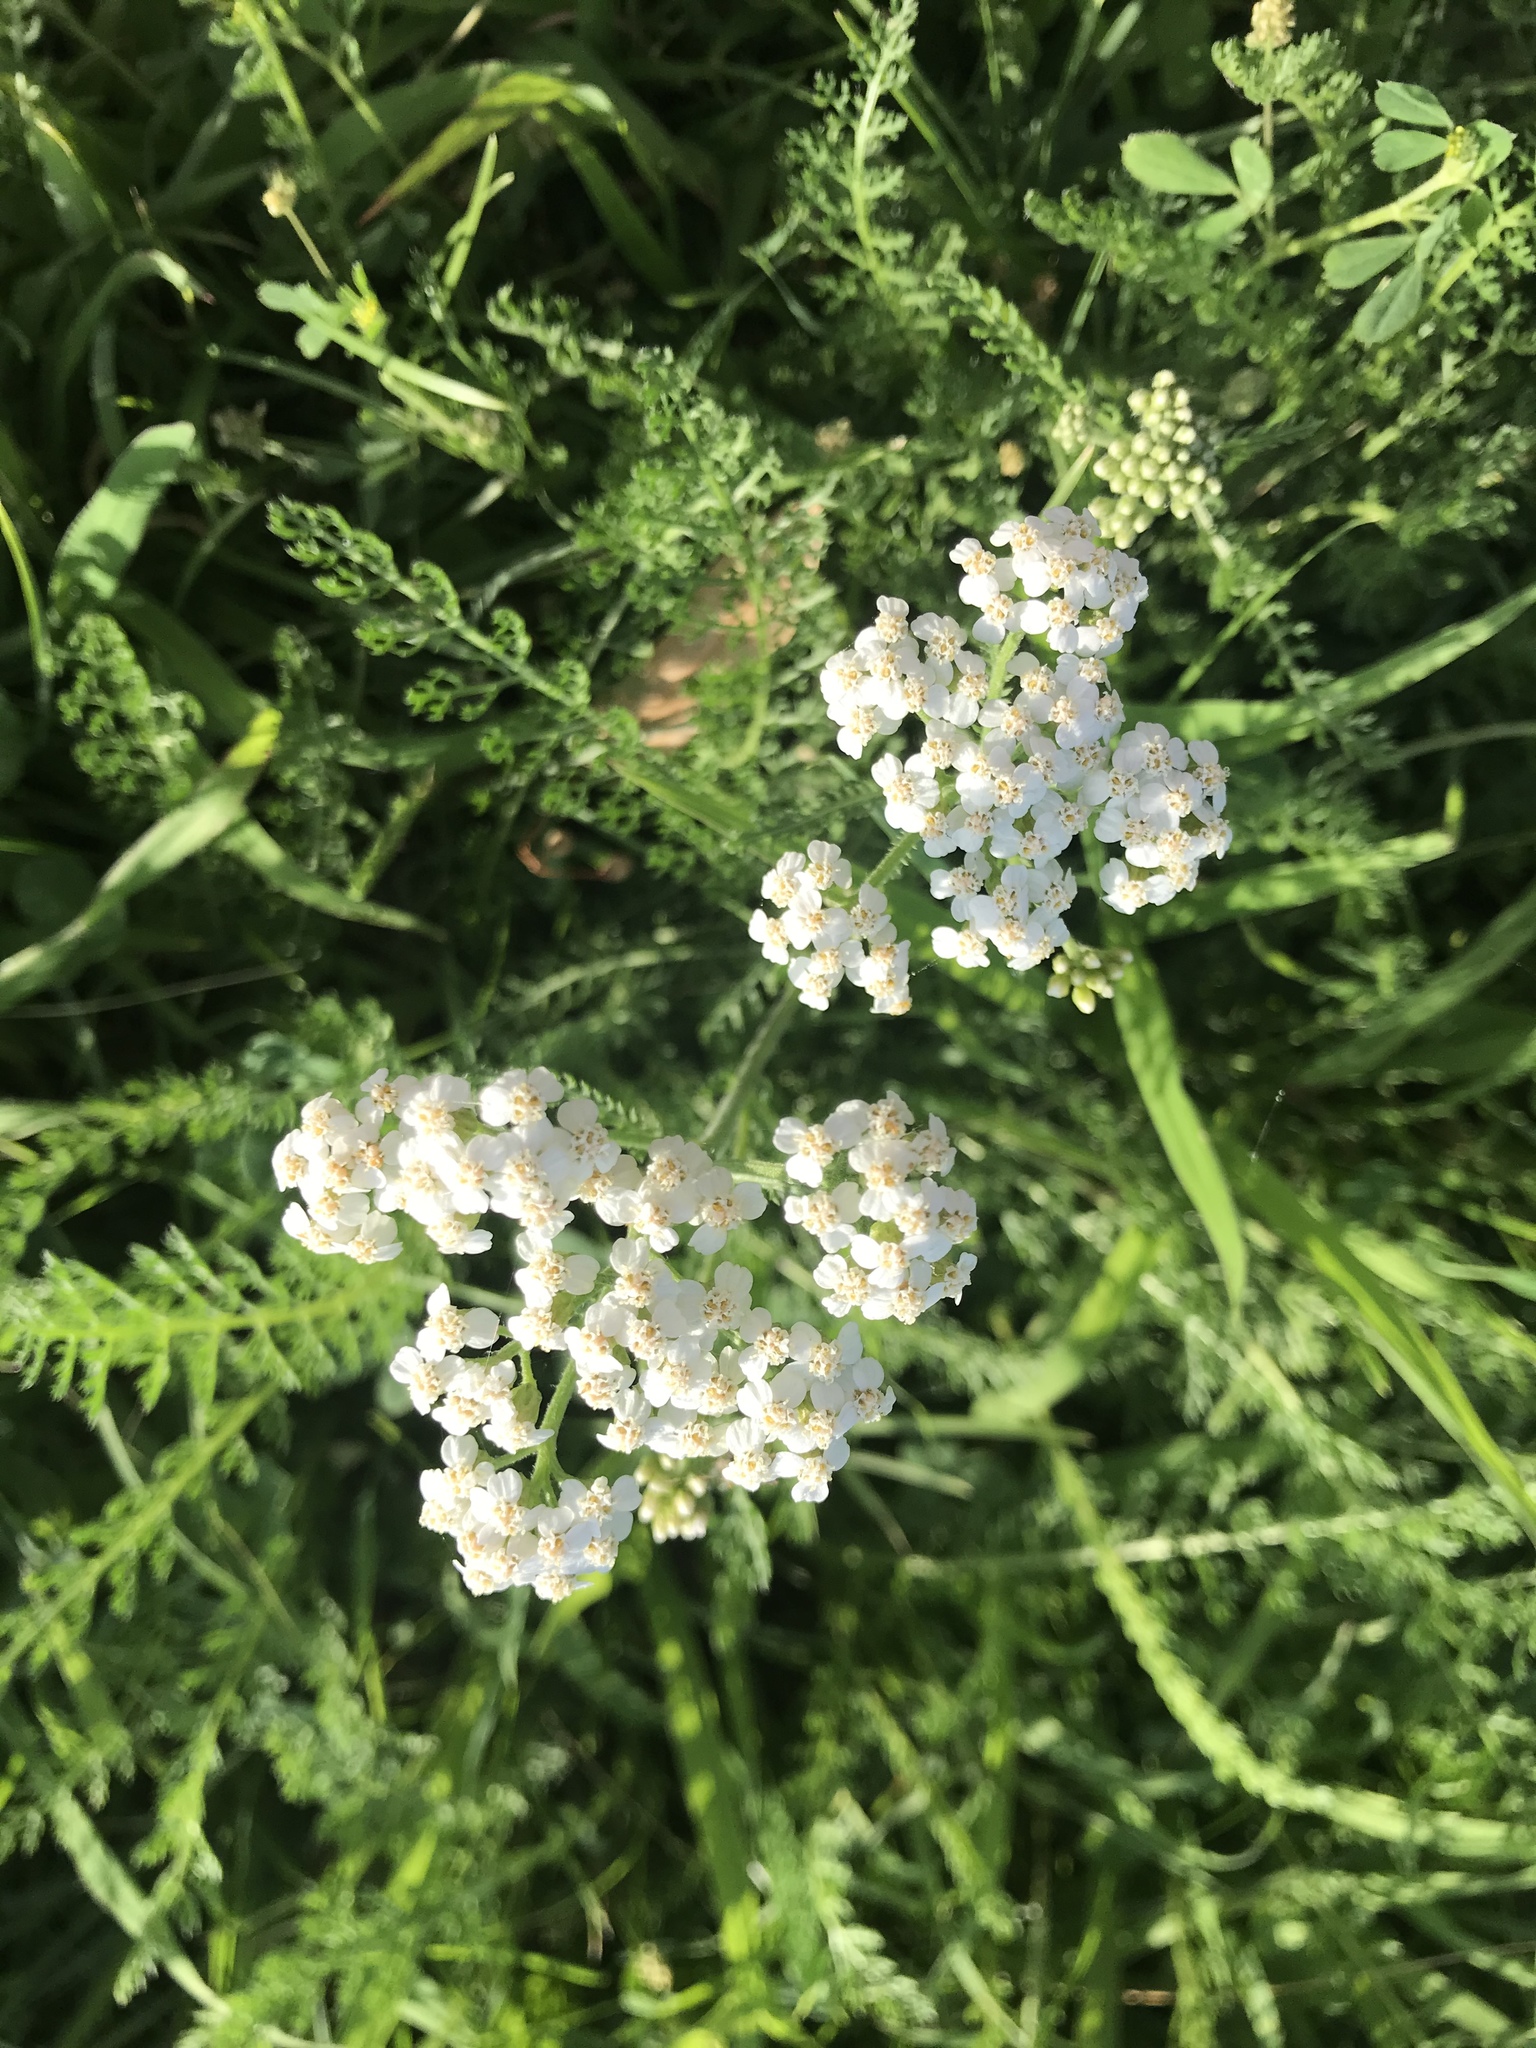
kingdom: Plantae
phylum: Tracheophyta
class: Magnoliopsida
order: Asterales
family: Asteraceae
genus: Achillea
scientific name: Achillea millefolium
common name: Yarrow
